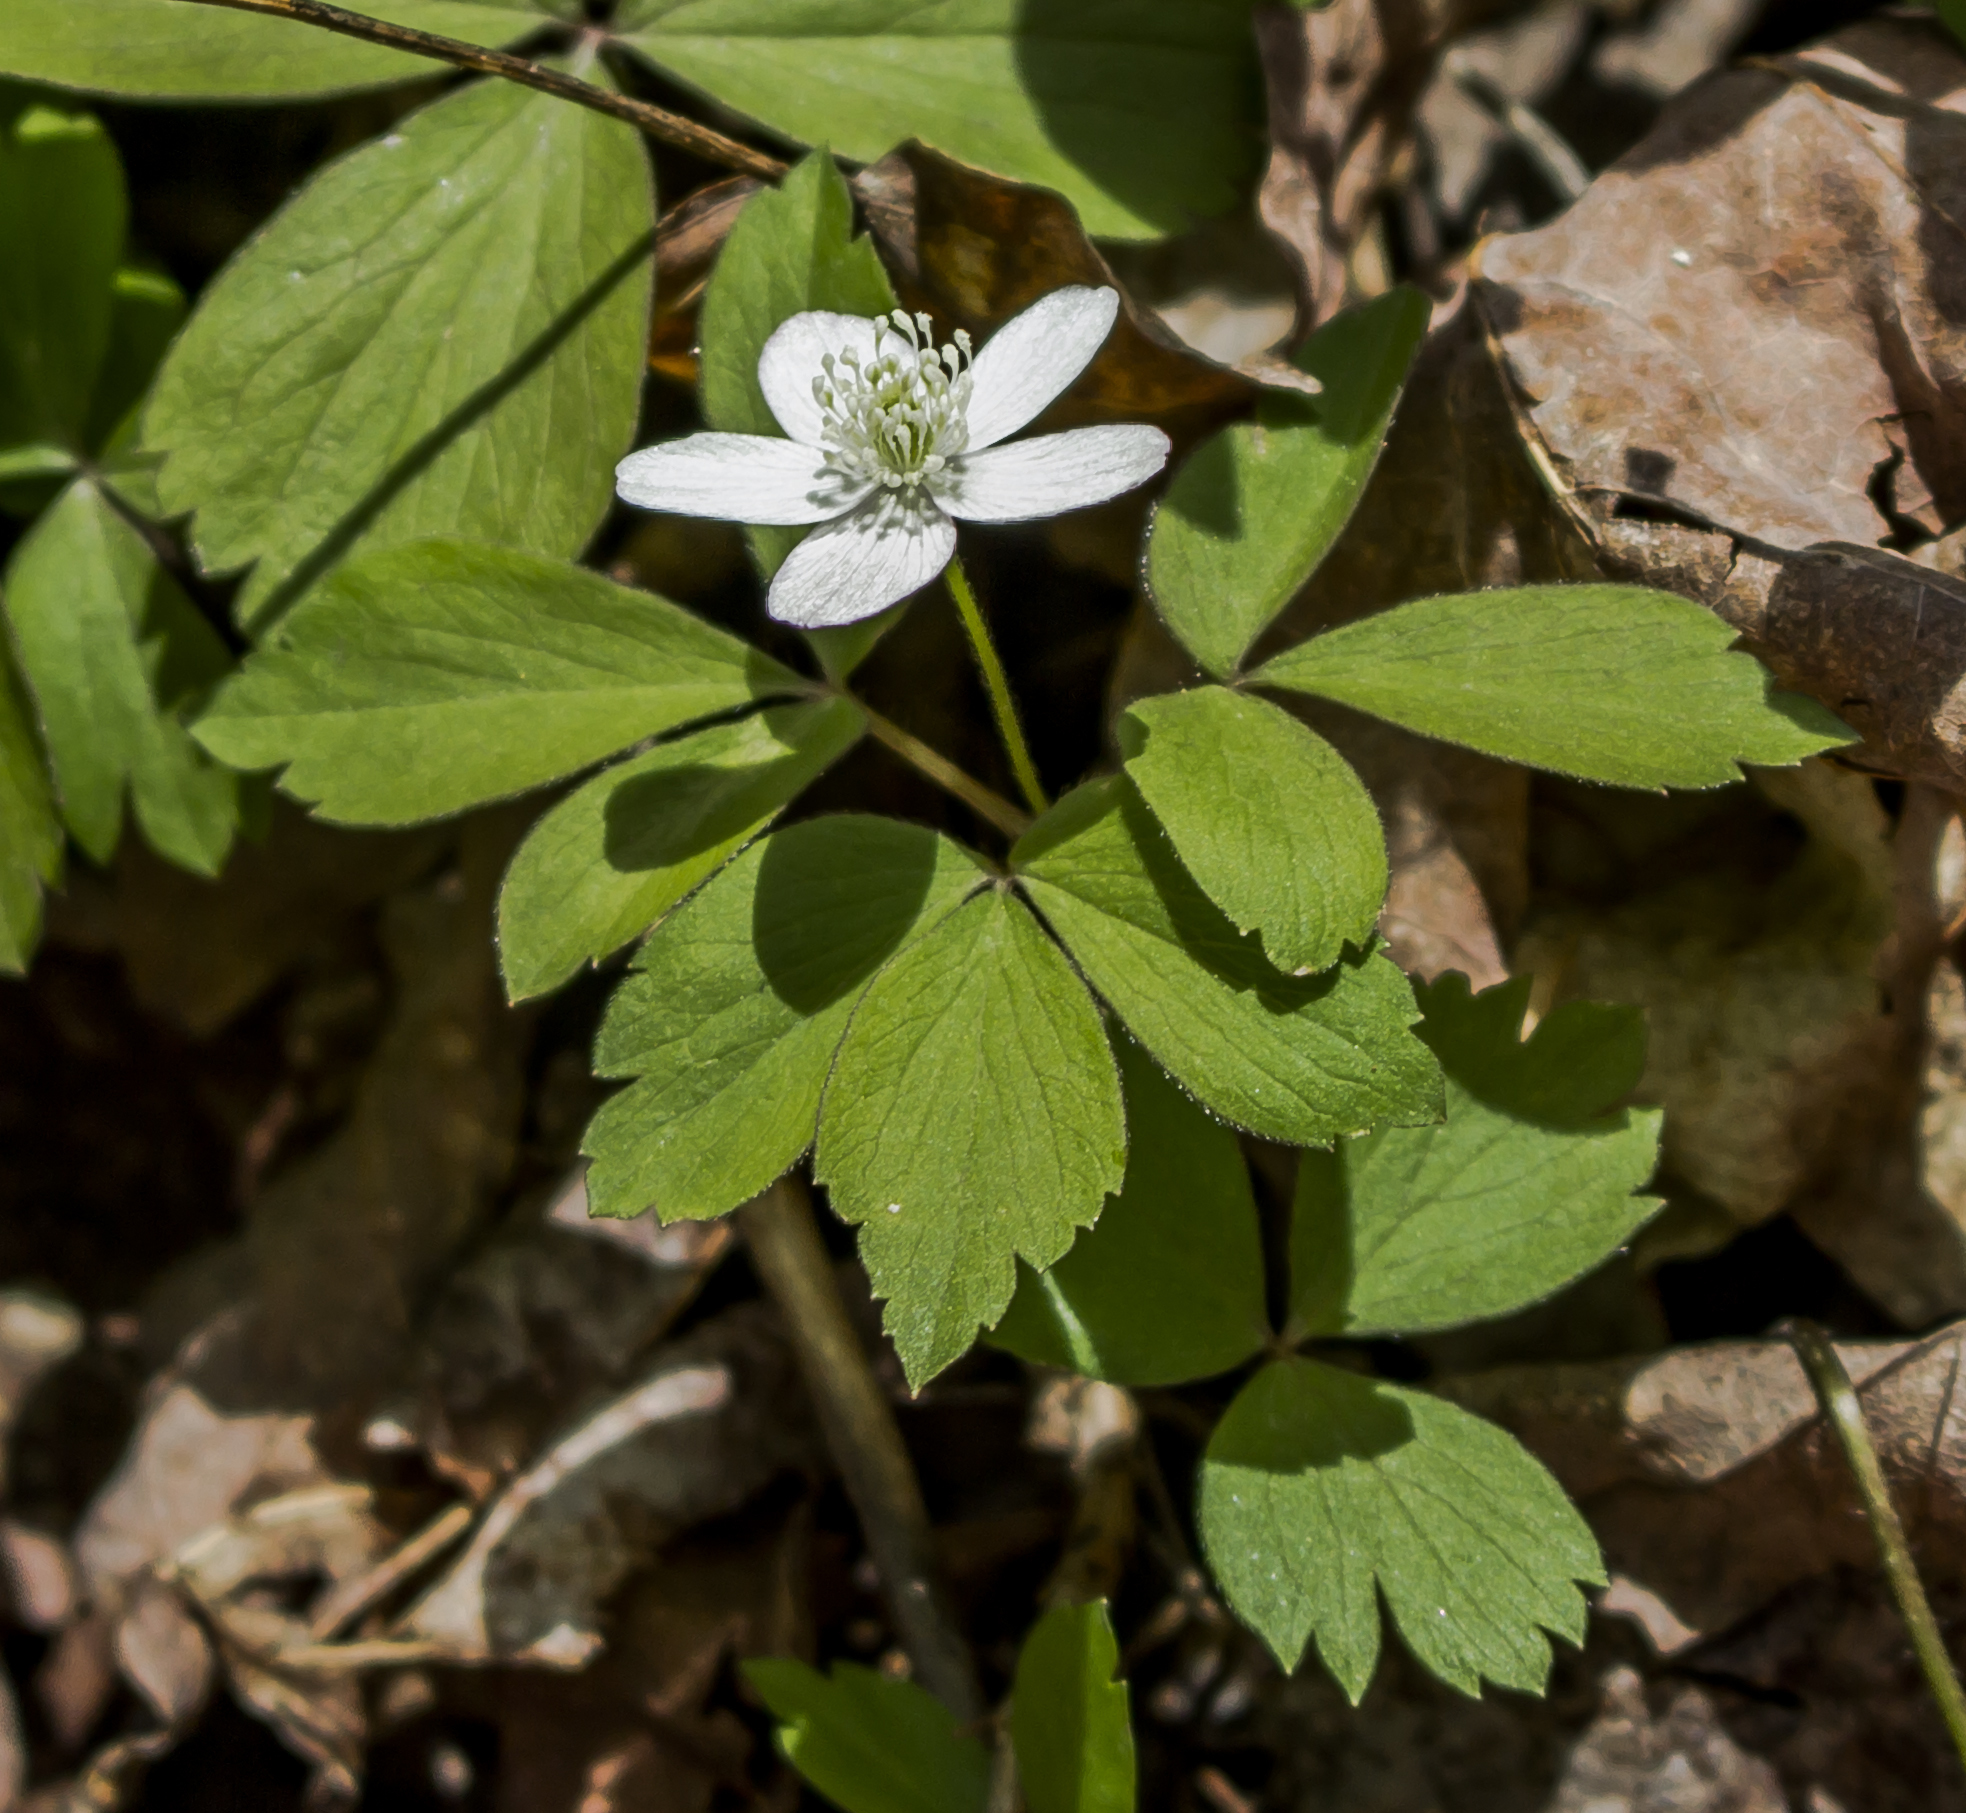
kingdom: Plantae
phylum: Tracheophyta
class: Magnoliopsida
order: Ranunculales
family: Ranunculaceae
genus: Anemone
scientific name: Anemone quinquefolia
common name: Wood anemone
